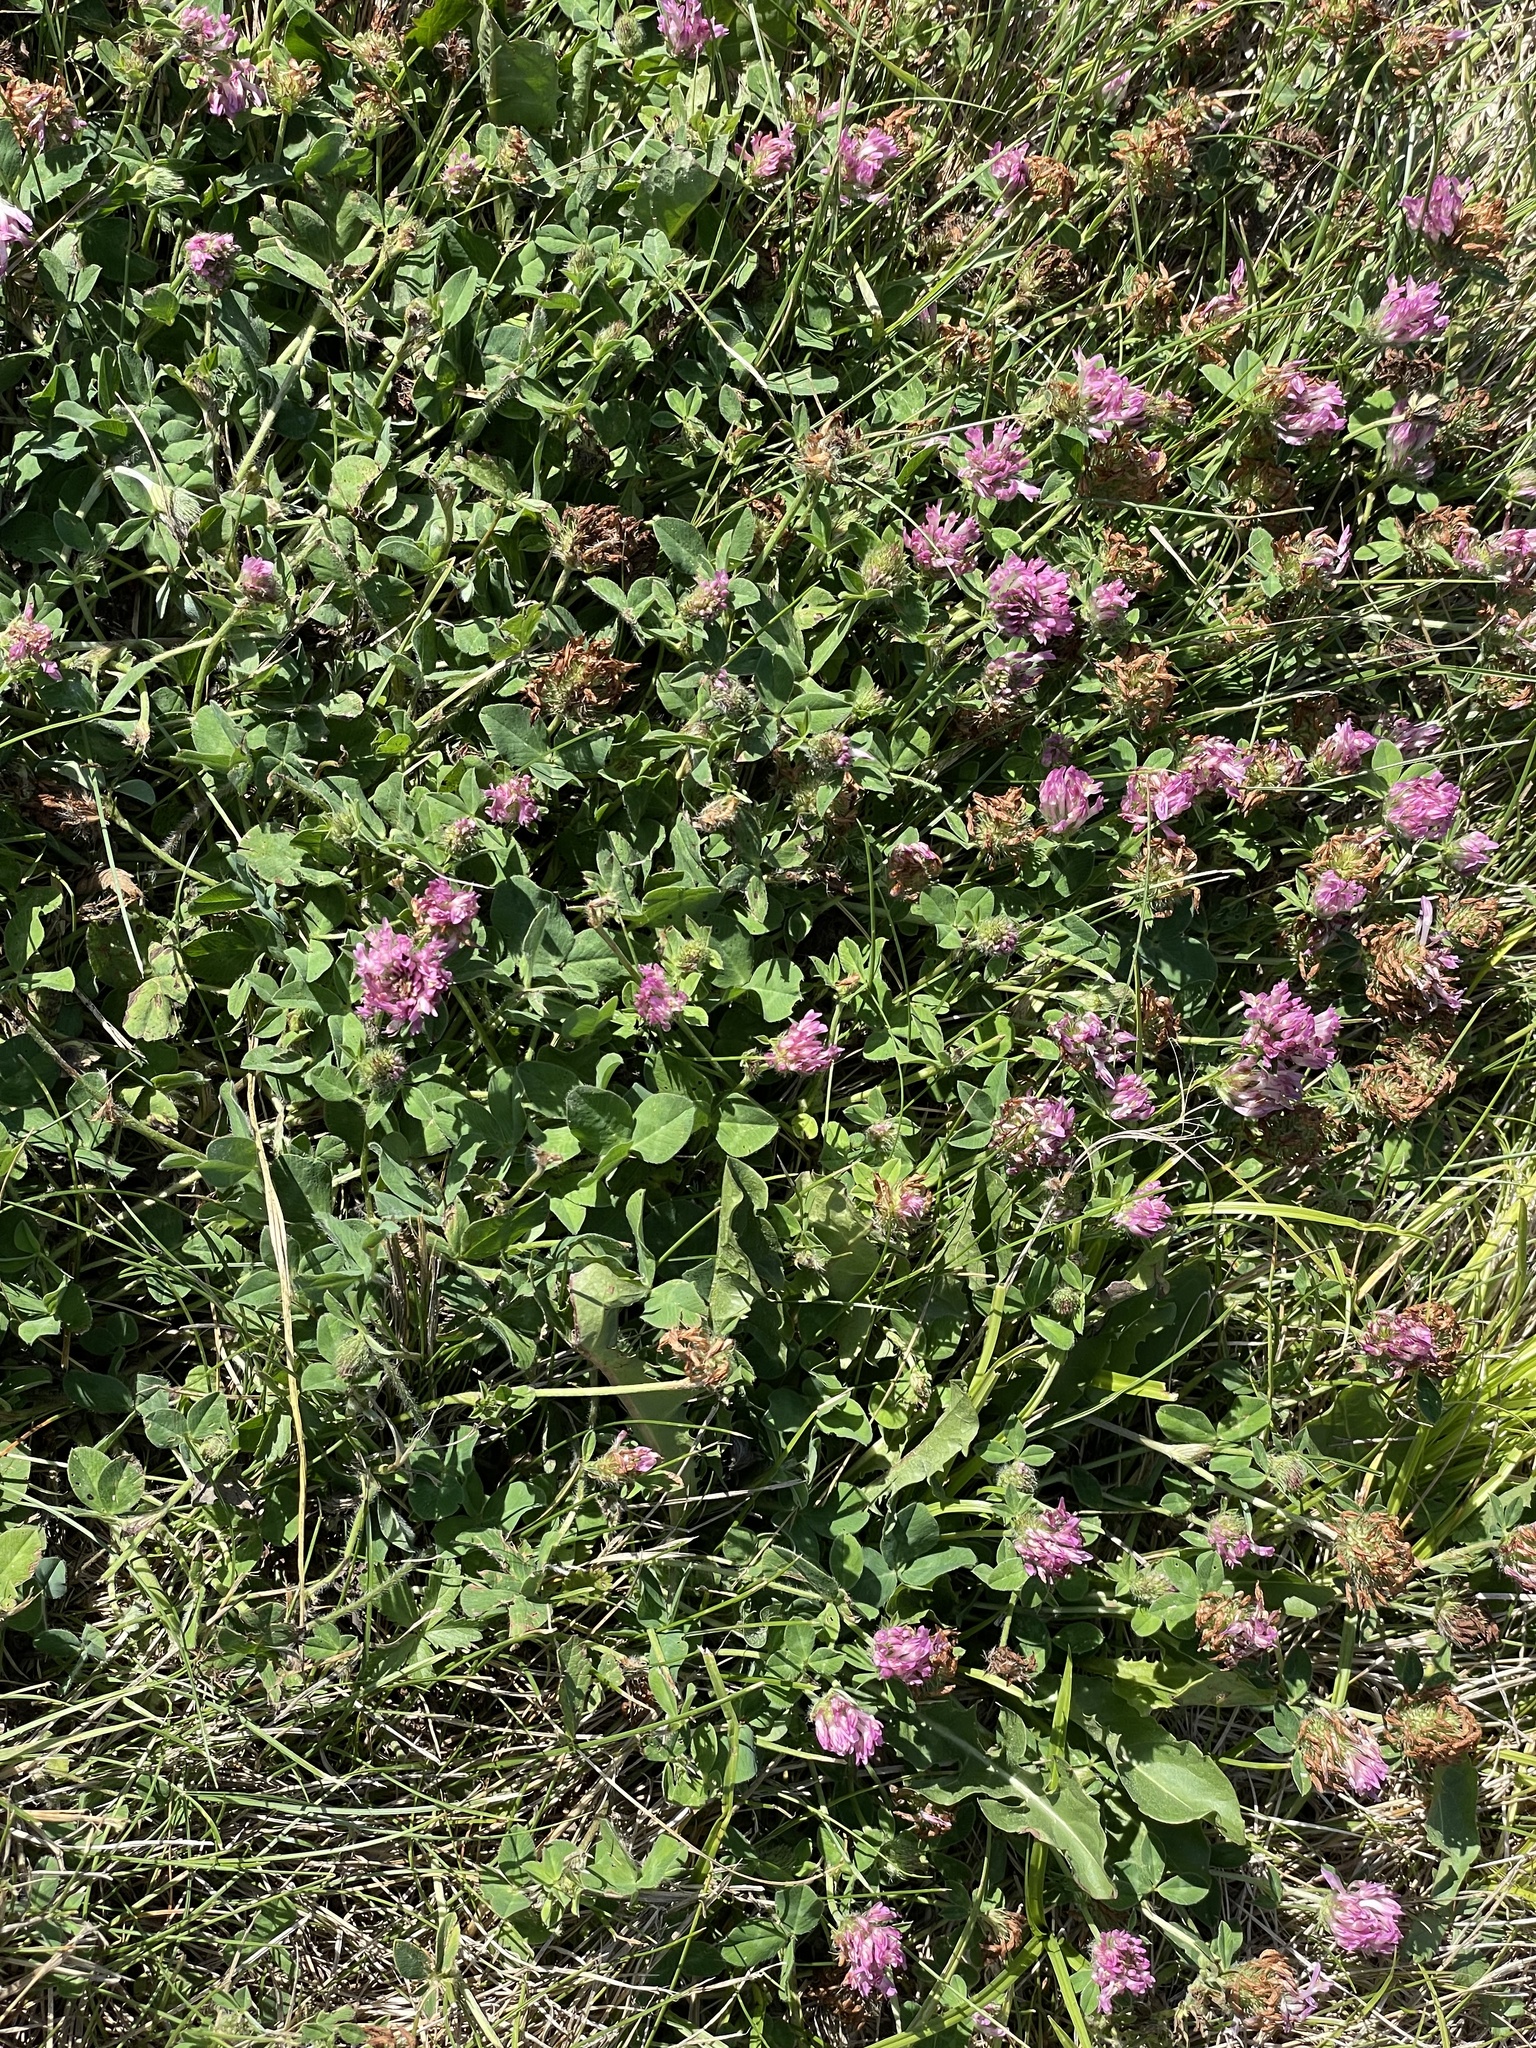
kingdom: Plantae
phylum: Tracheophyta
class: Magnoliopsida
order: Fabales
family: Fabaceae
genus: Trifolium
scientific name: Trifolium pratense
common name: Red clover
